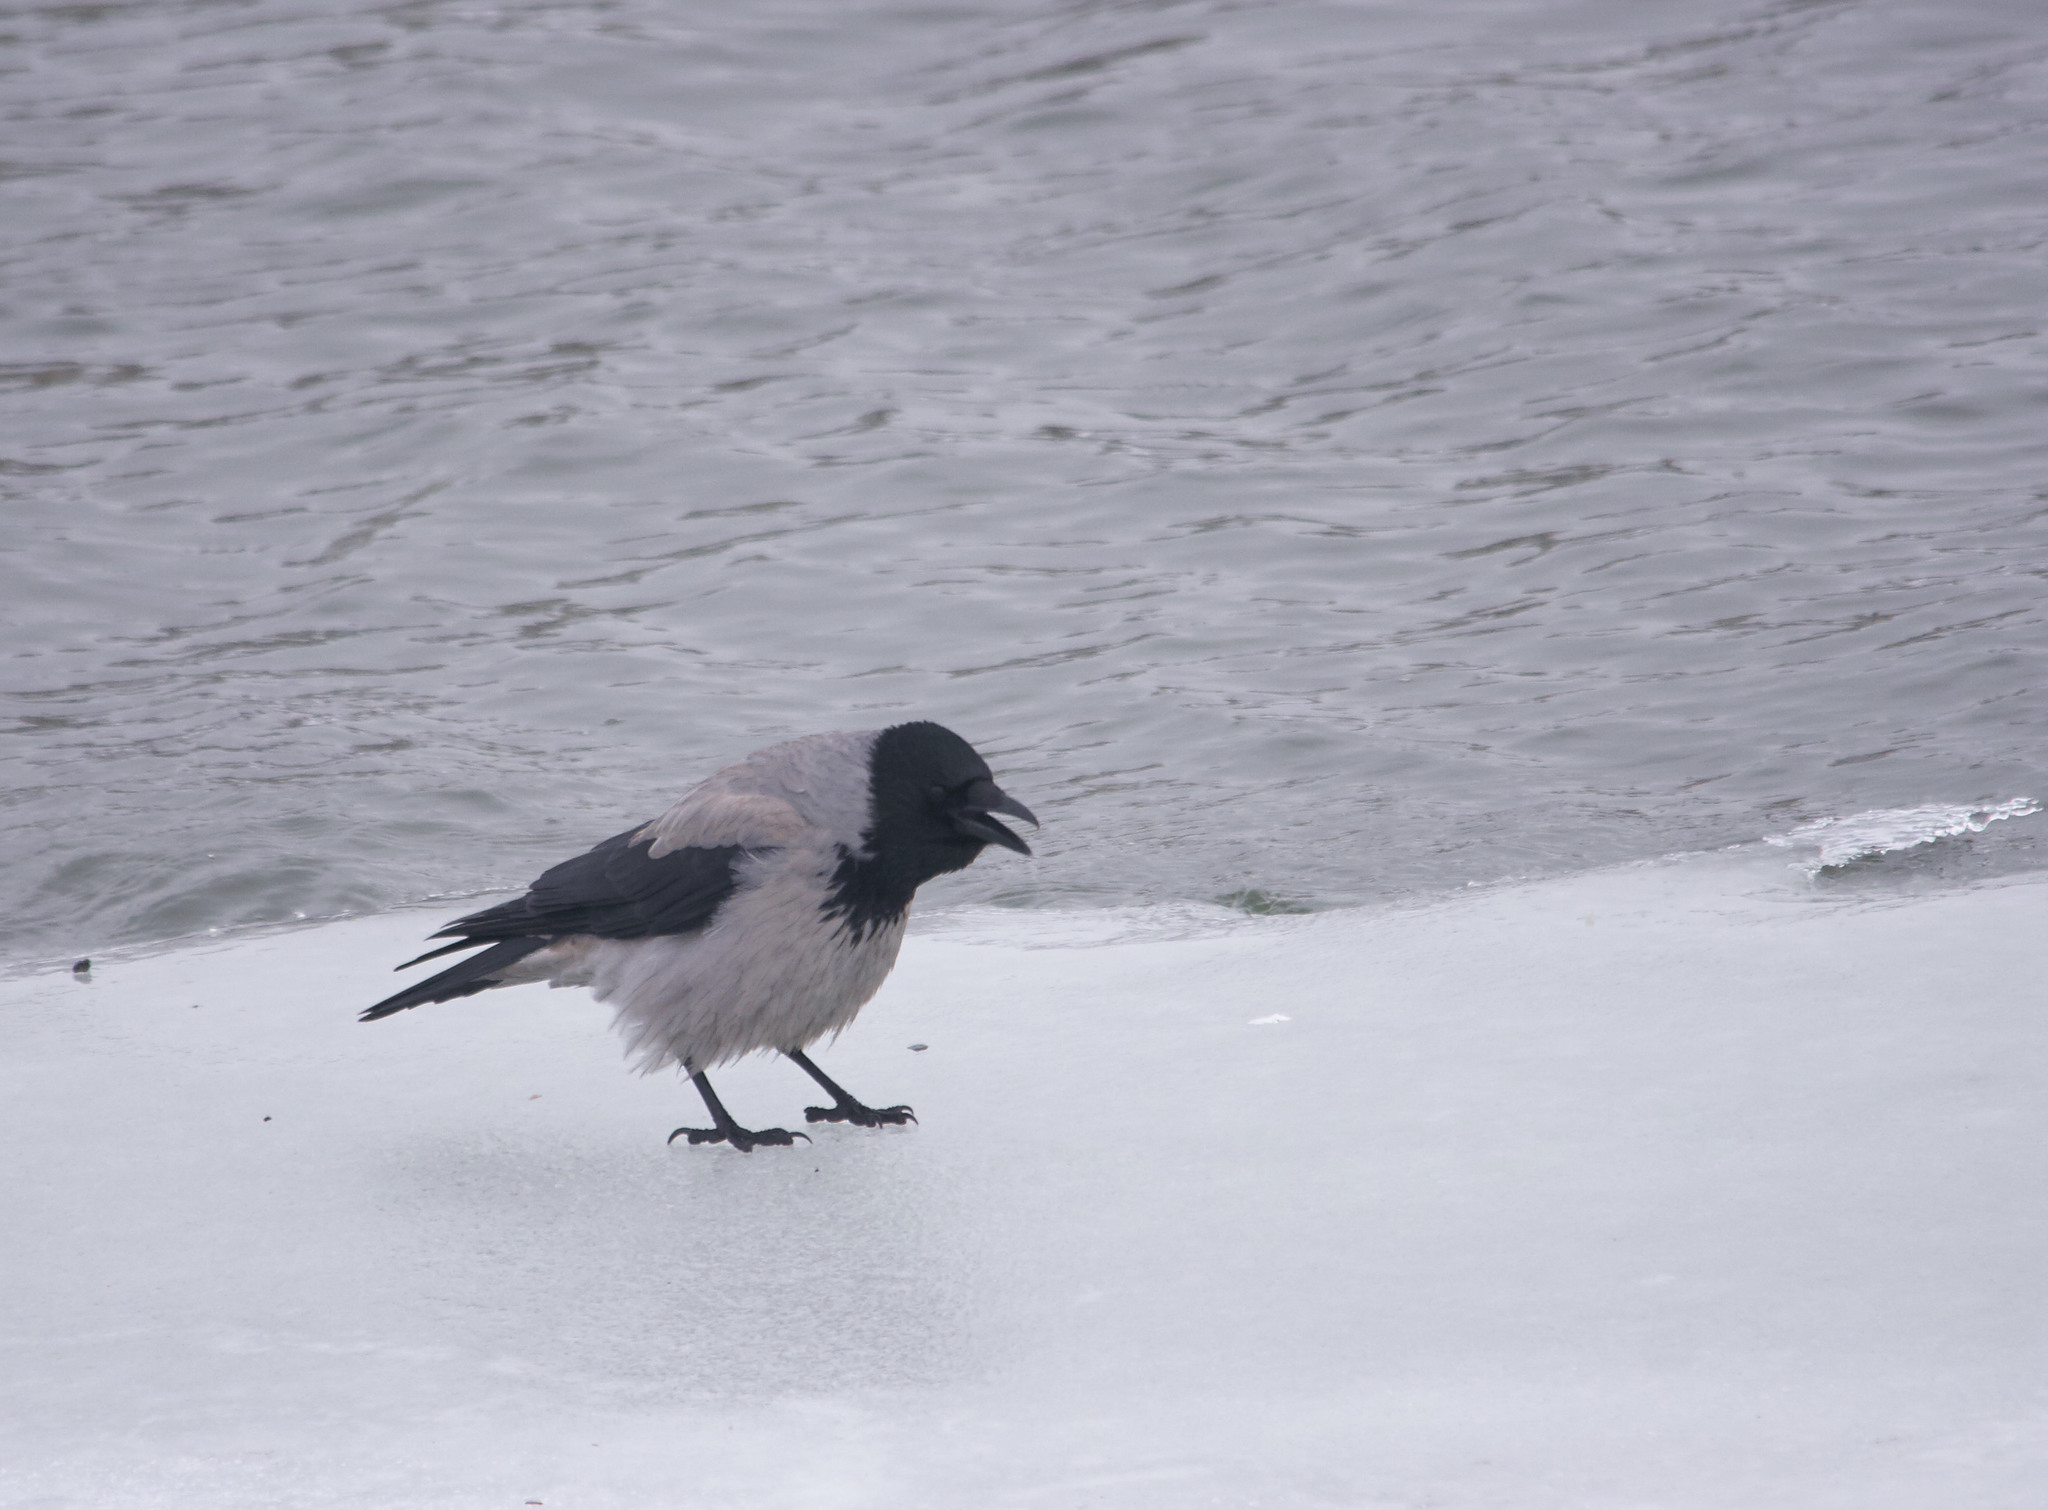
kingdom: Animalia
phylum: Chordata
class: Aves
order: Passeriformes
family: Corvidae
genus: Corvus
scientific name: Corvus cornix
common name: Hooded crow
